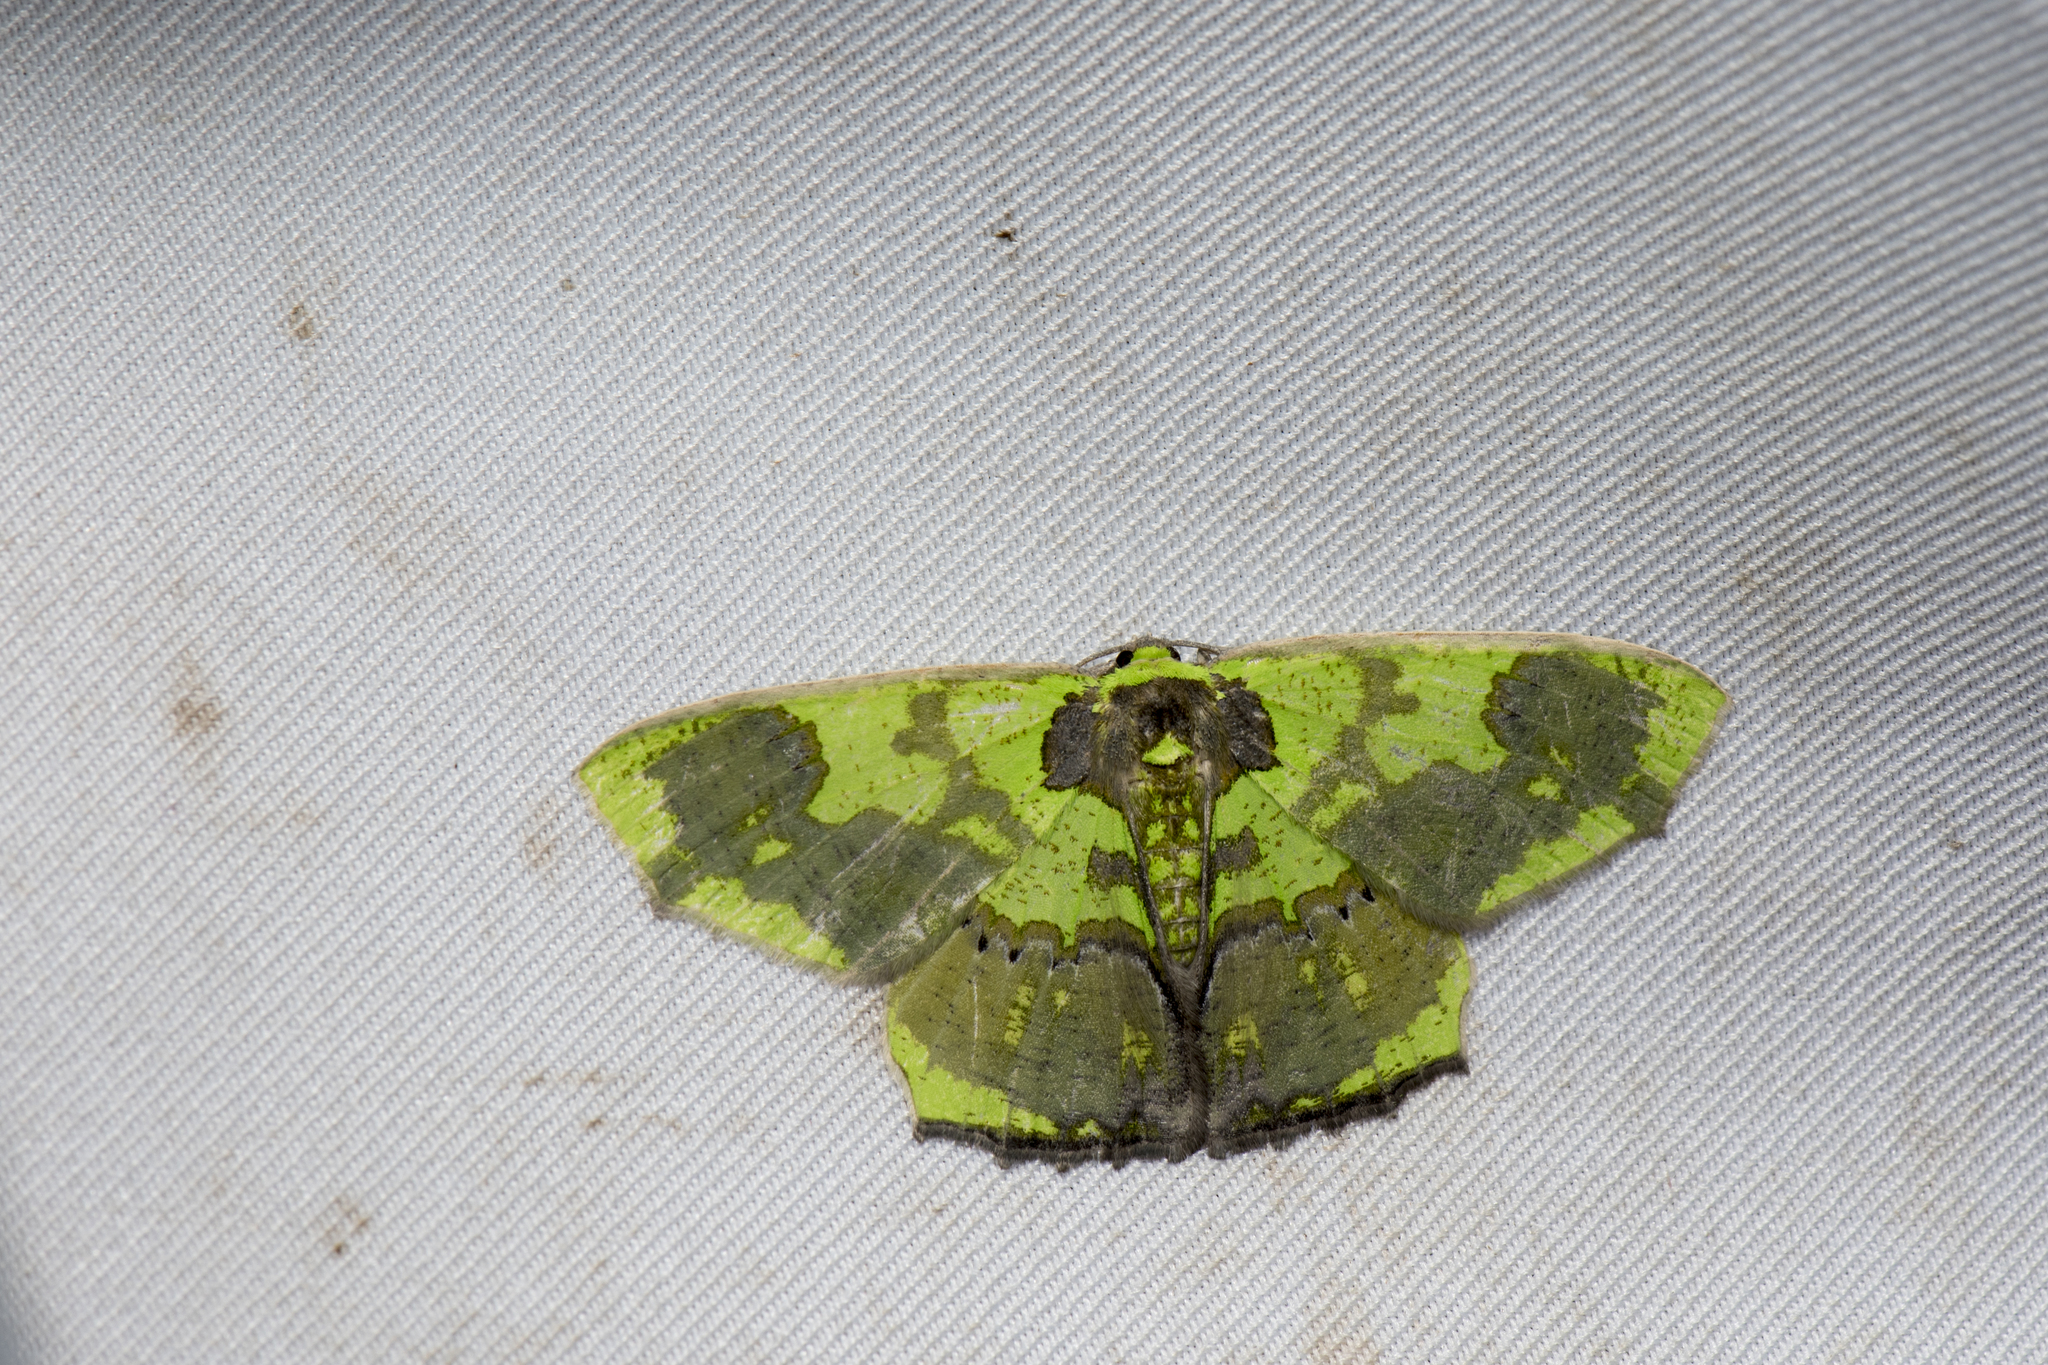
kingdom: Animalia
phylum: Arthropoda
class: Insecta
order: Lepidoptera
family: Geometridae
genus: Agathia
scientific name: Agathia diversiformis
